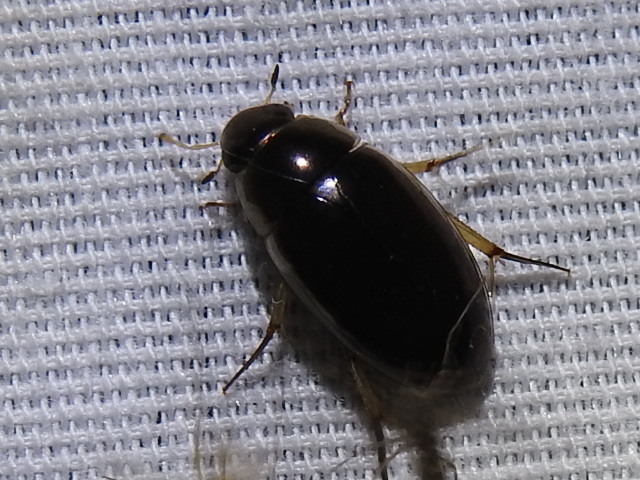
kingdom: Animalia
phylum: Arthropoda
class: Insecta
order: Coleoptera
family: Hydrophilidae
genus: Tropisternus
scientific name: Tropisternus lateralis
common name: Lateral-banded water scavenger beetle
